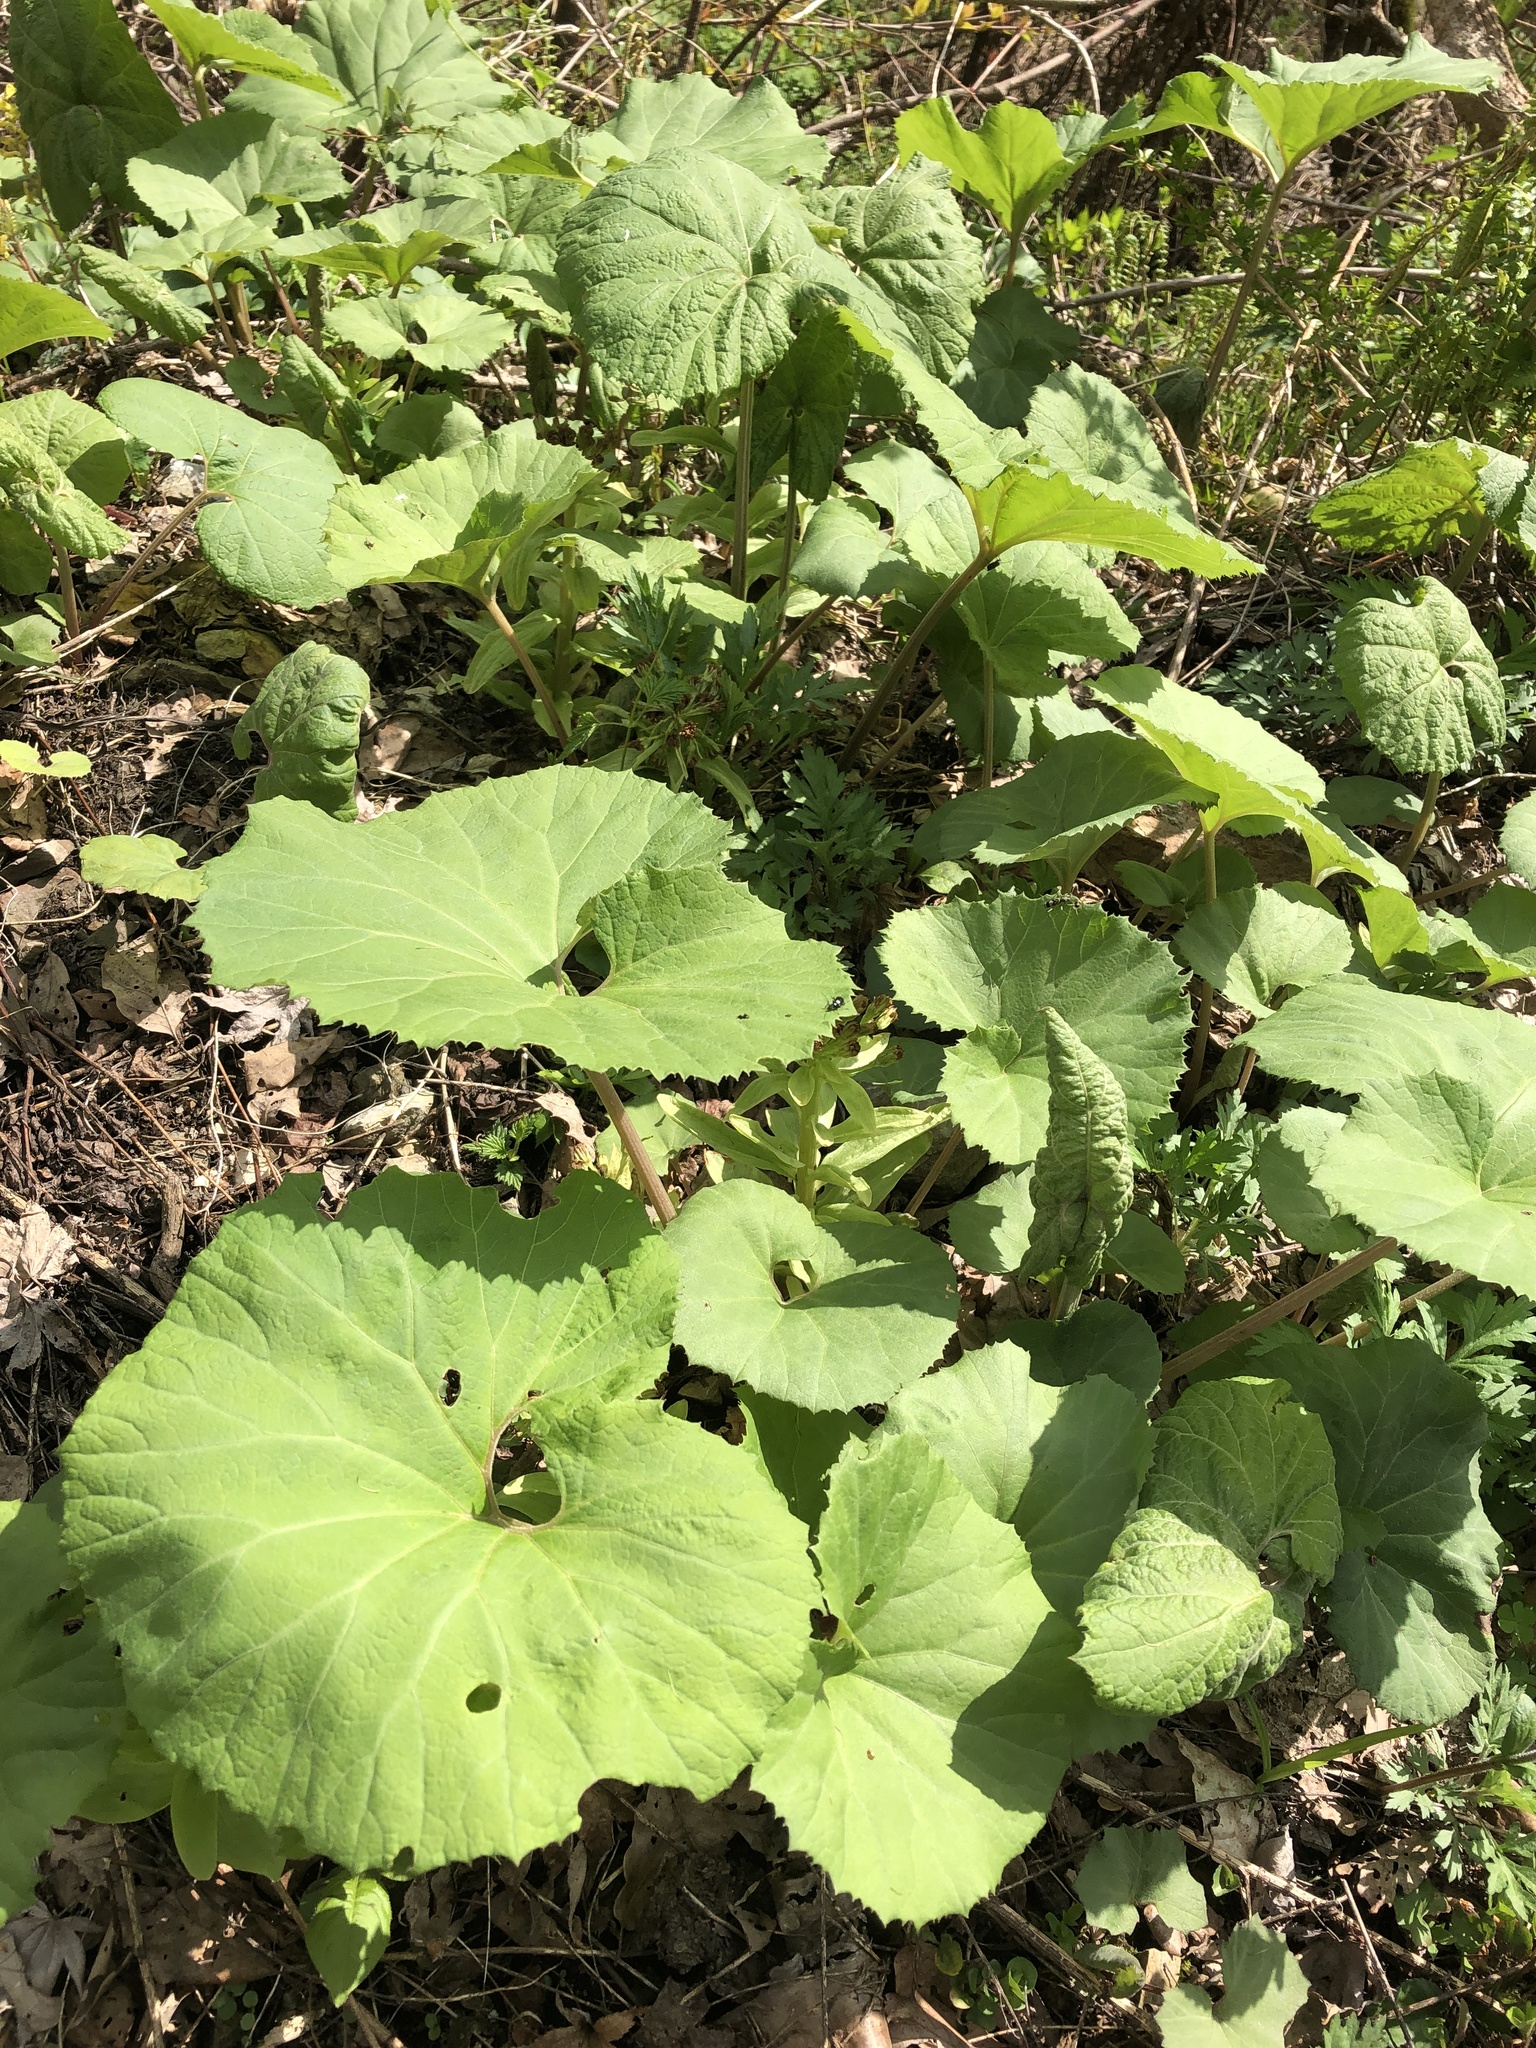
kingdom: Plantae
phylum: Tracheophyta
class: Magnoliopsida
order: Asterales
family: Asteraceae
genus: Petasites
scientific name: Petasites japonicus
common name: Giant butterbur
